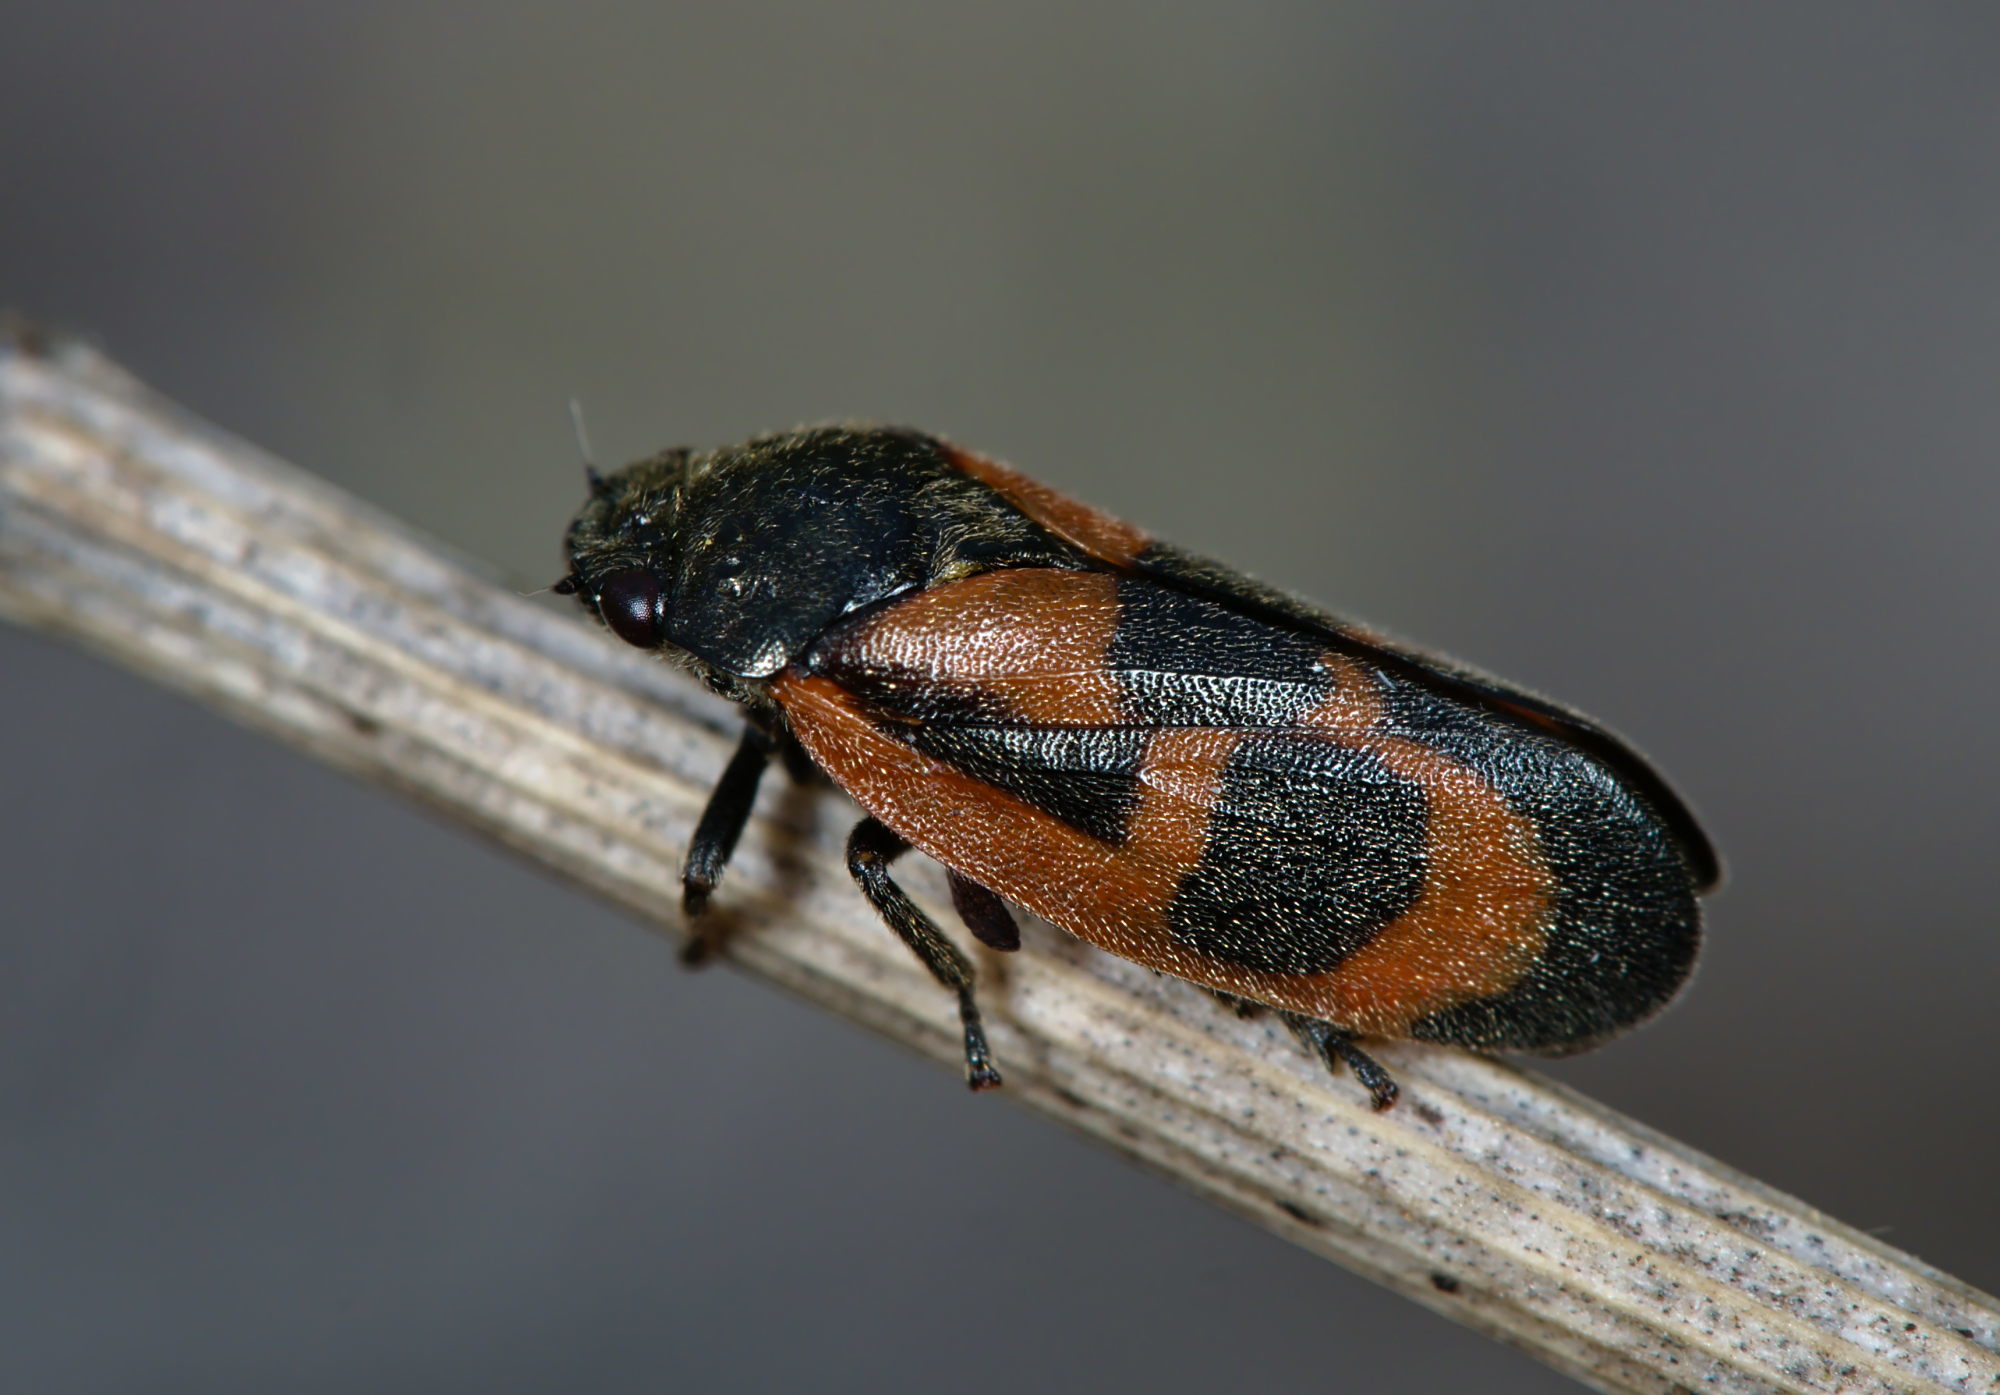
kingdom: Animalia
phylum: Arthropoda
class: Insecta
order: Hemiptera
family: Cercopidae
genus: Haematoloma
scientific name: Haematoloma dorsata
